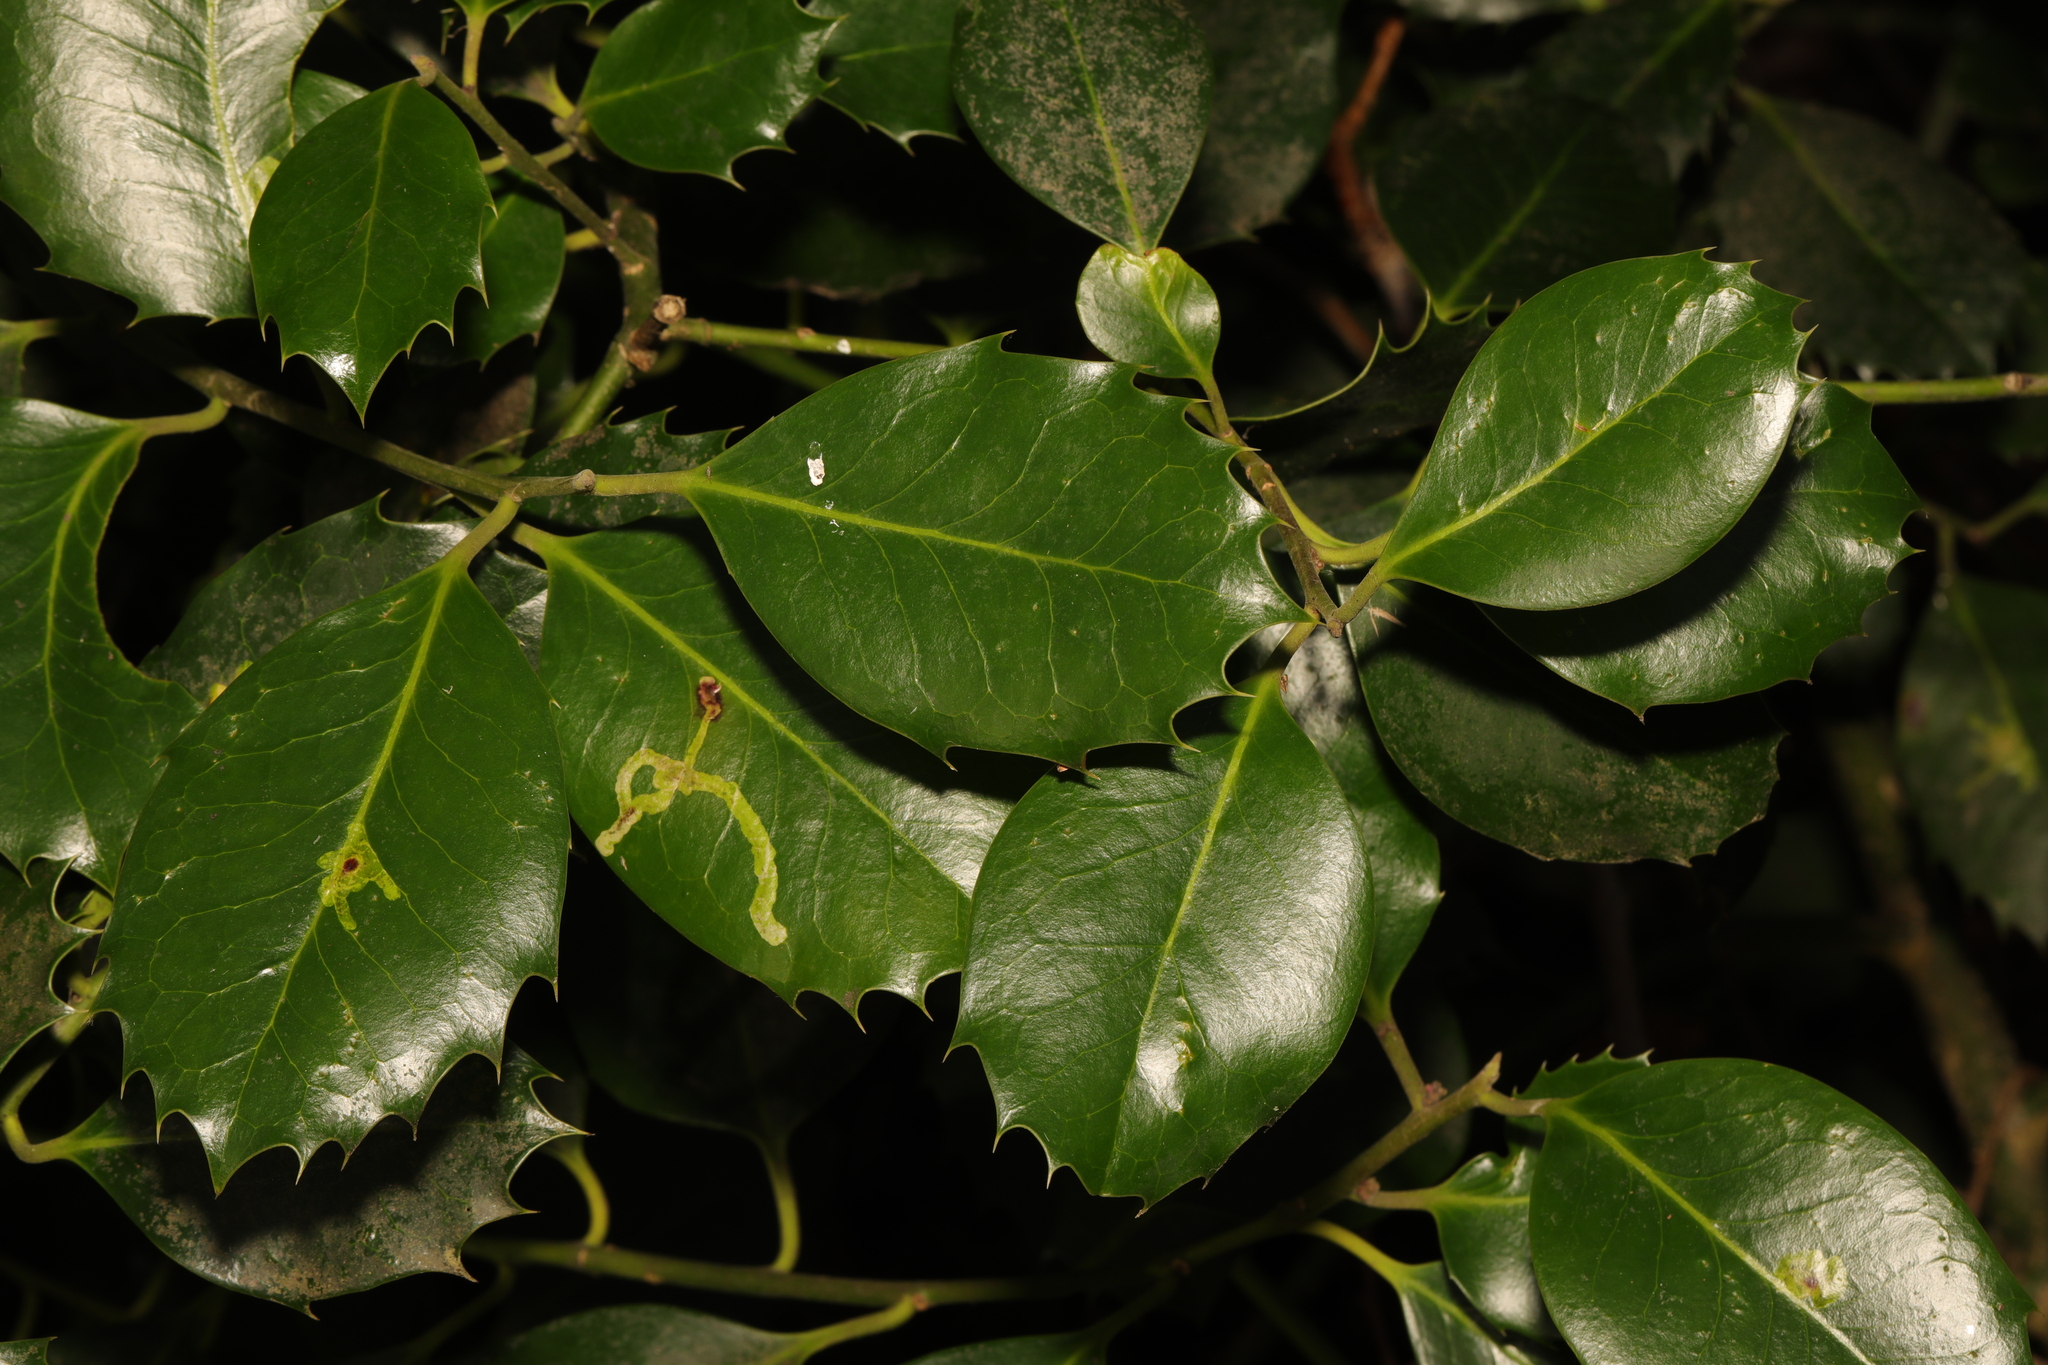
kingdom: Plantae
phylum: Tracheophyta
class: Magnoliopsida
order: Aquifoliales
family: Aquifoliaceae
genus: Ilex
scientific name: Ilex altaclerensis
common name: Highclere holly
